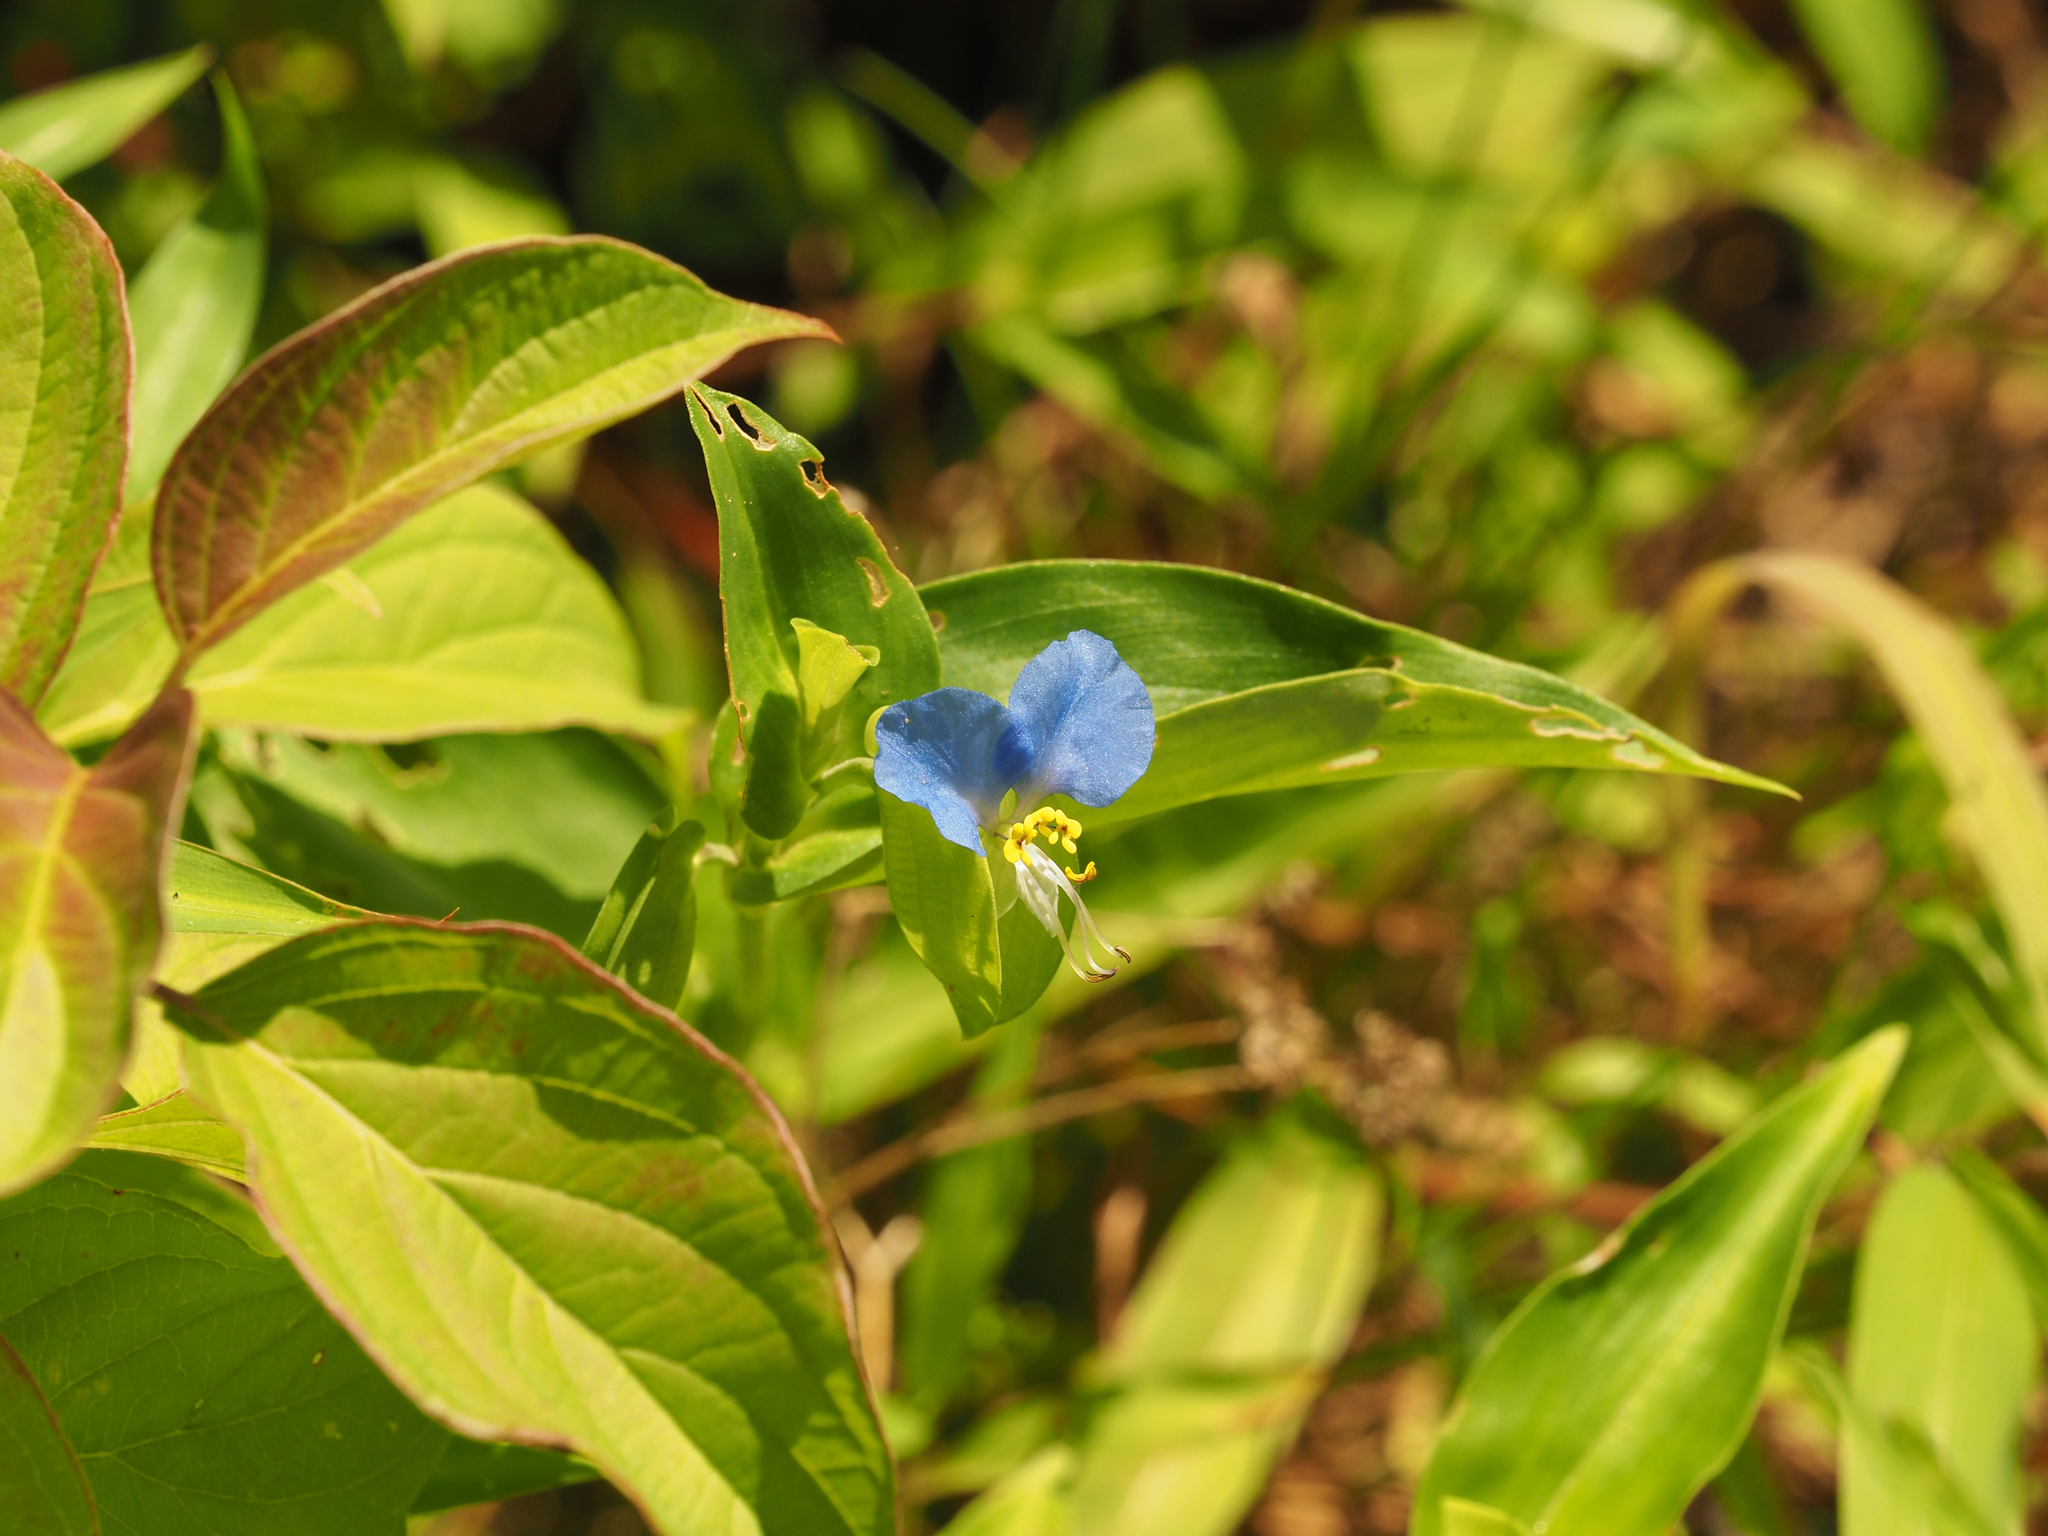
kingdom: Plantae
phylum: Tracheophyta
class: Liliopsida
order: Commelinales
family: Commelinaceae
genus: Commelina
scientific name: Commelina communis
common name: Asiatic dayflower
